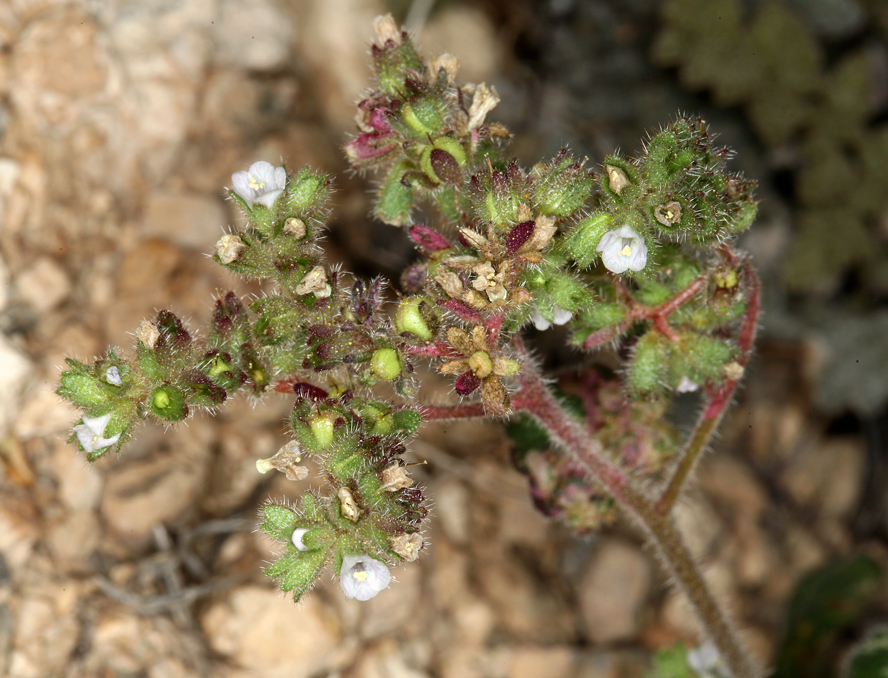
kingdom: Plantae
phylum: Tracheophyta
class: Magnoliopsida
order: Boraginales
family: Hydrophyllaceae
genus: Phacelia
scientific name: Phacelia coerulea
